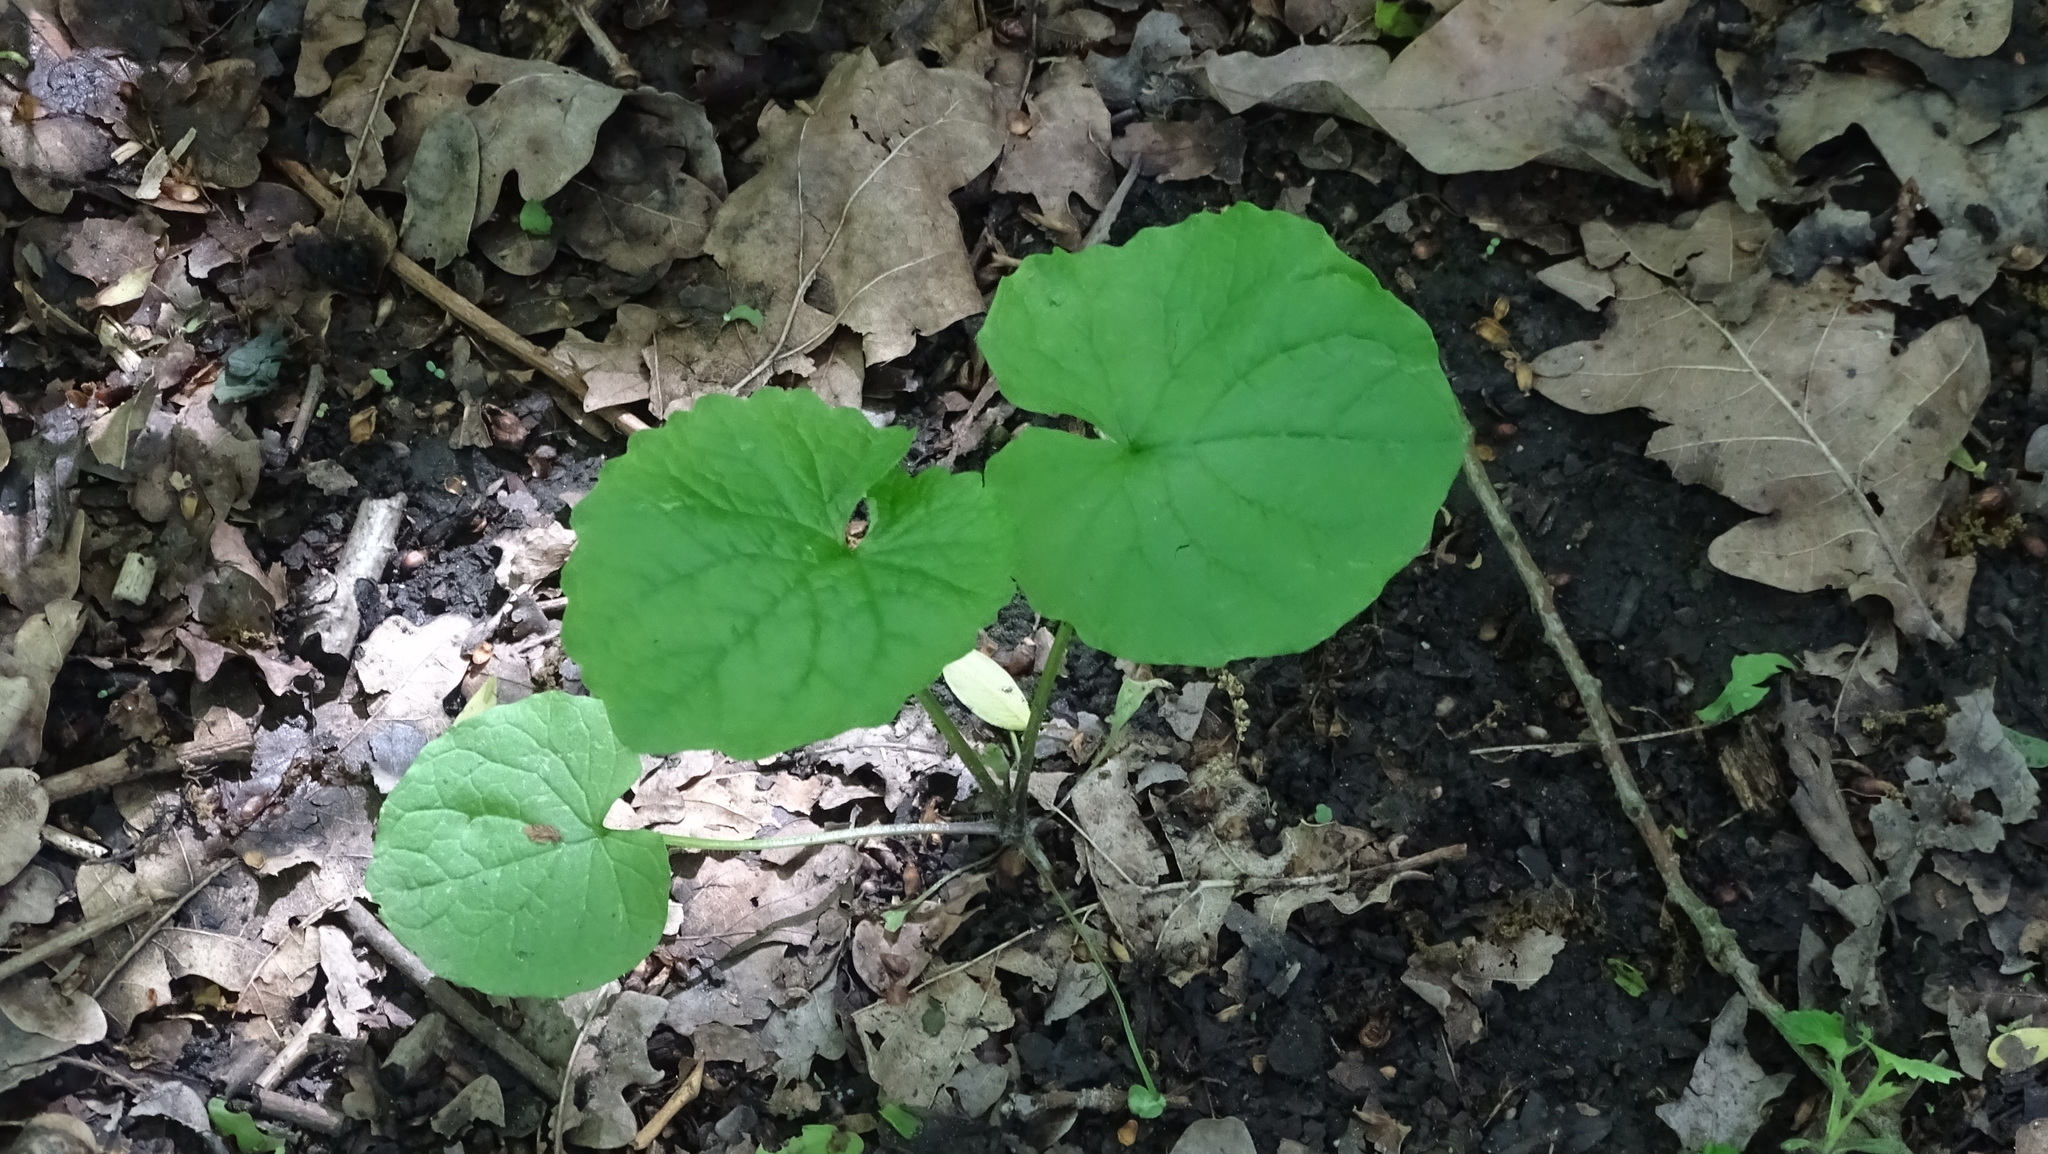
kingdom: Plantae
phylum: Tracheophyta
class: Magnoliopsida
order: Brassicales
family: Brassicaceae
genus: Alliaria
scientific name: Alliaria petiolata
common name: Garlic mustard
